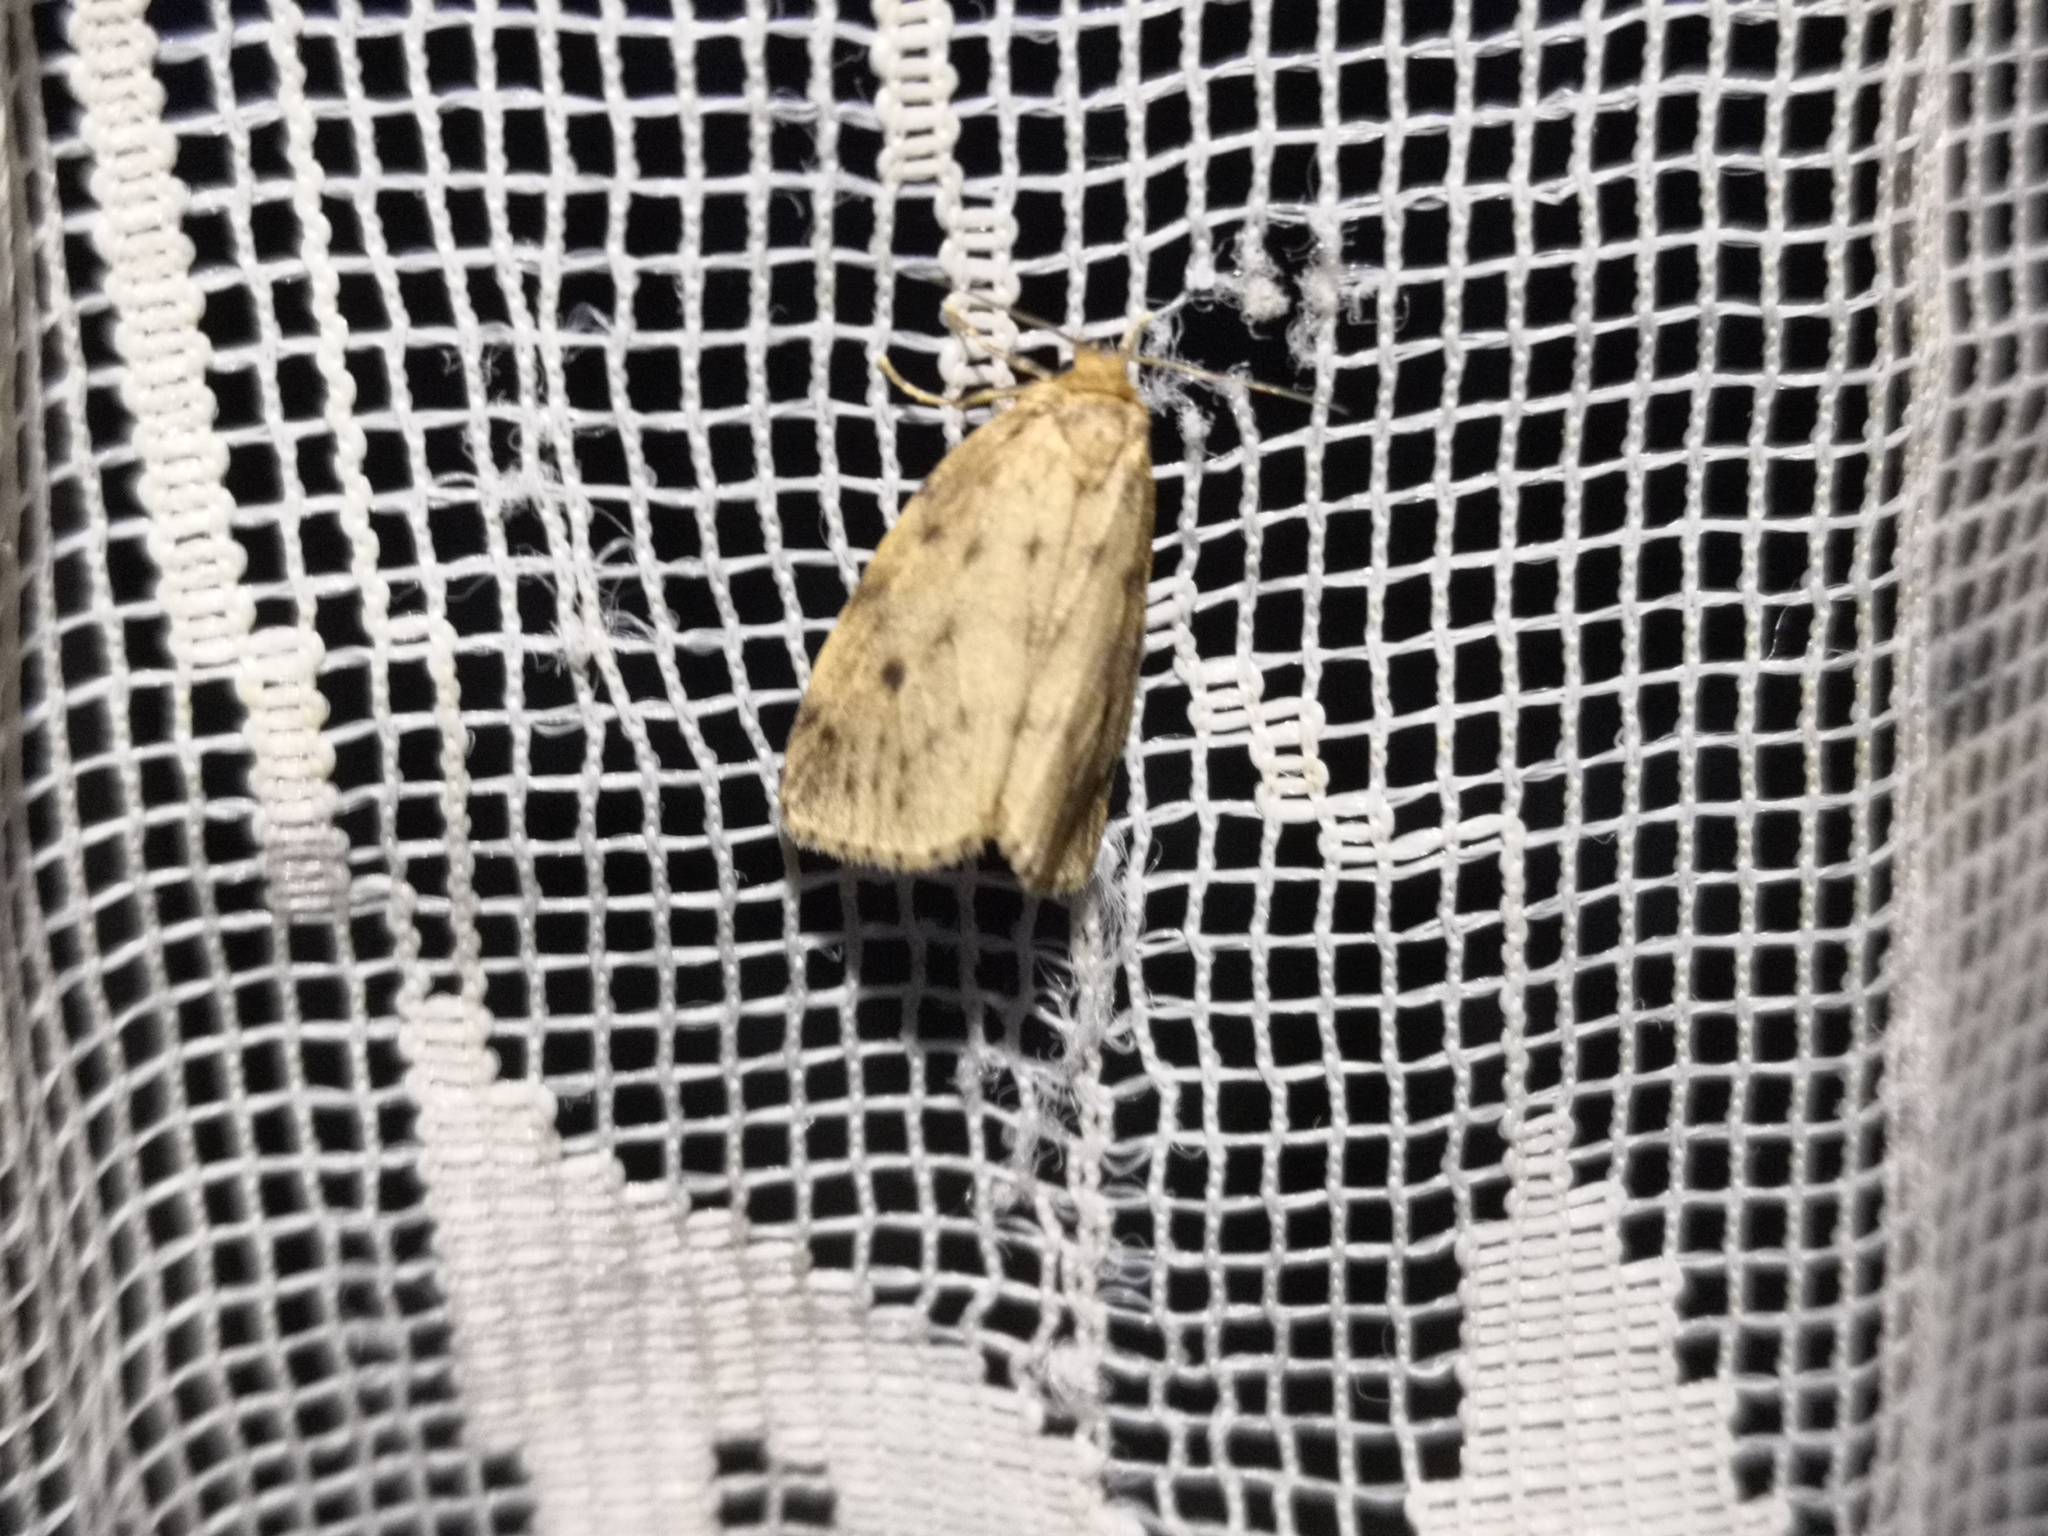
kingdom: Animalia
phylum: Arthropoda
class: Insecta
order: Lepidoptera
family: Erebidae
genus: Thumatha
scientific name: Thumatha senex
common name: Round-winged muslin
